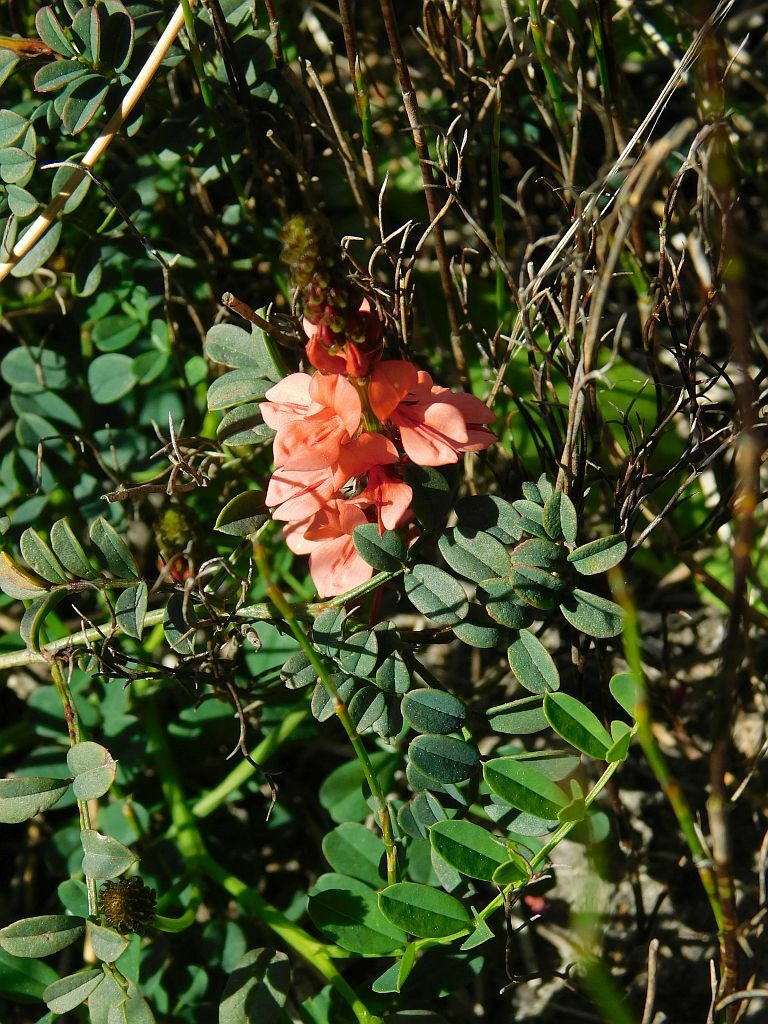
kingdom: Plantae
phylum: Tracheophyta
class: Magnoliopsida
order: Fabales
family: Fabaceae
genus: Indigofera
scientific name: Indigofera capillaris
